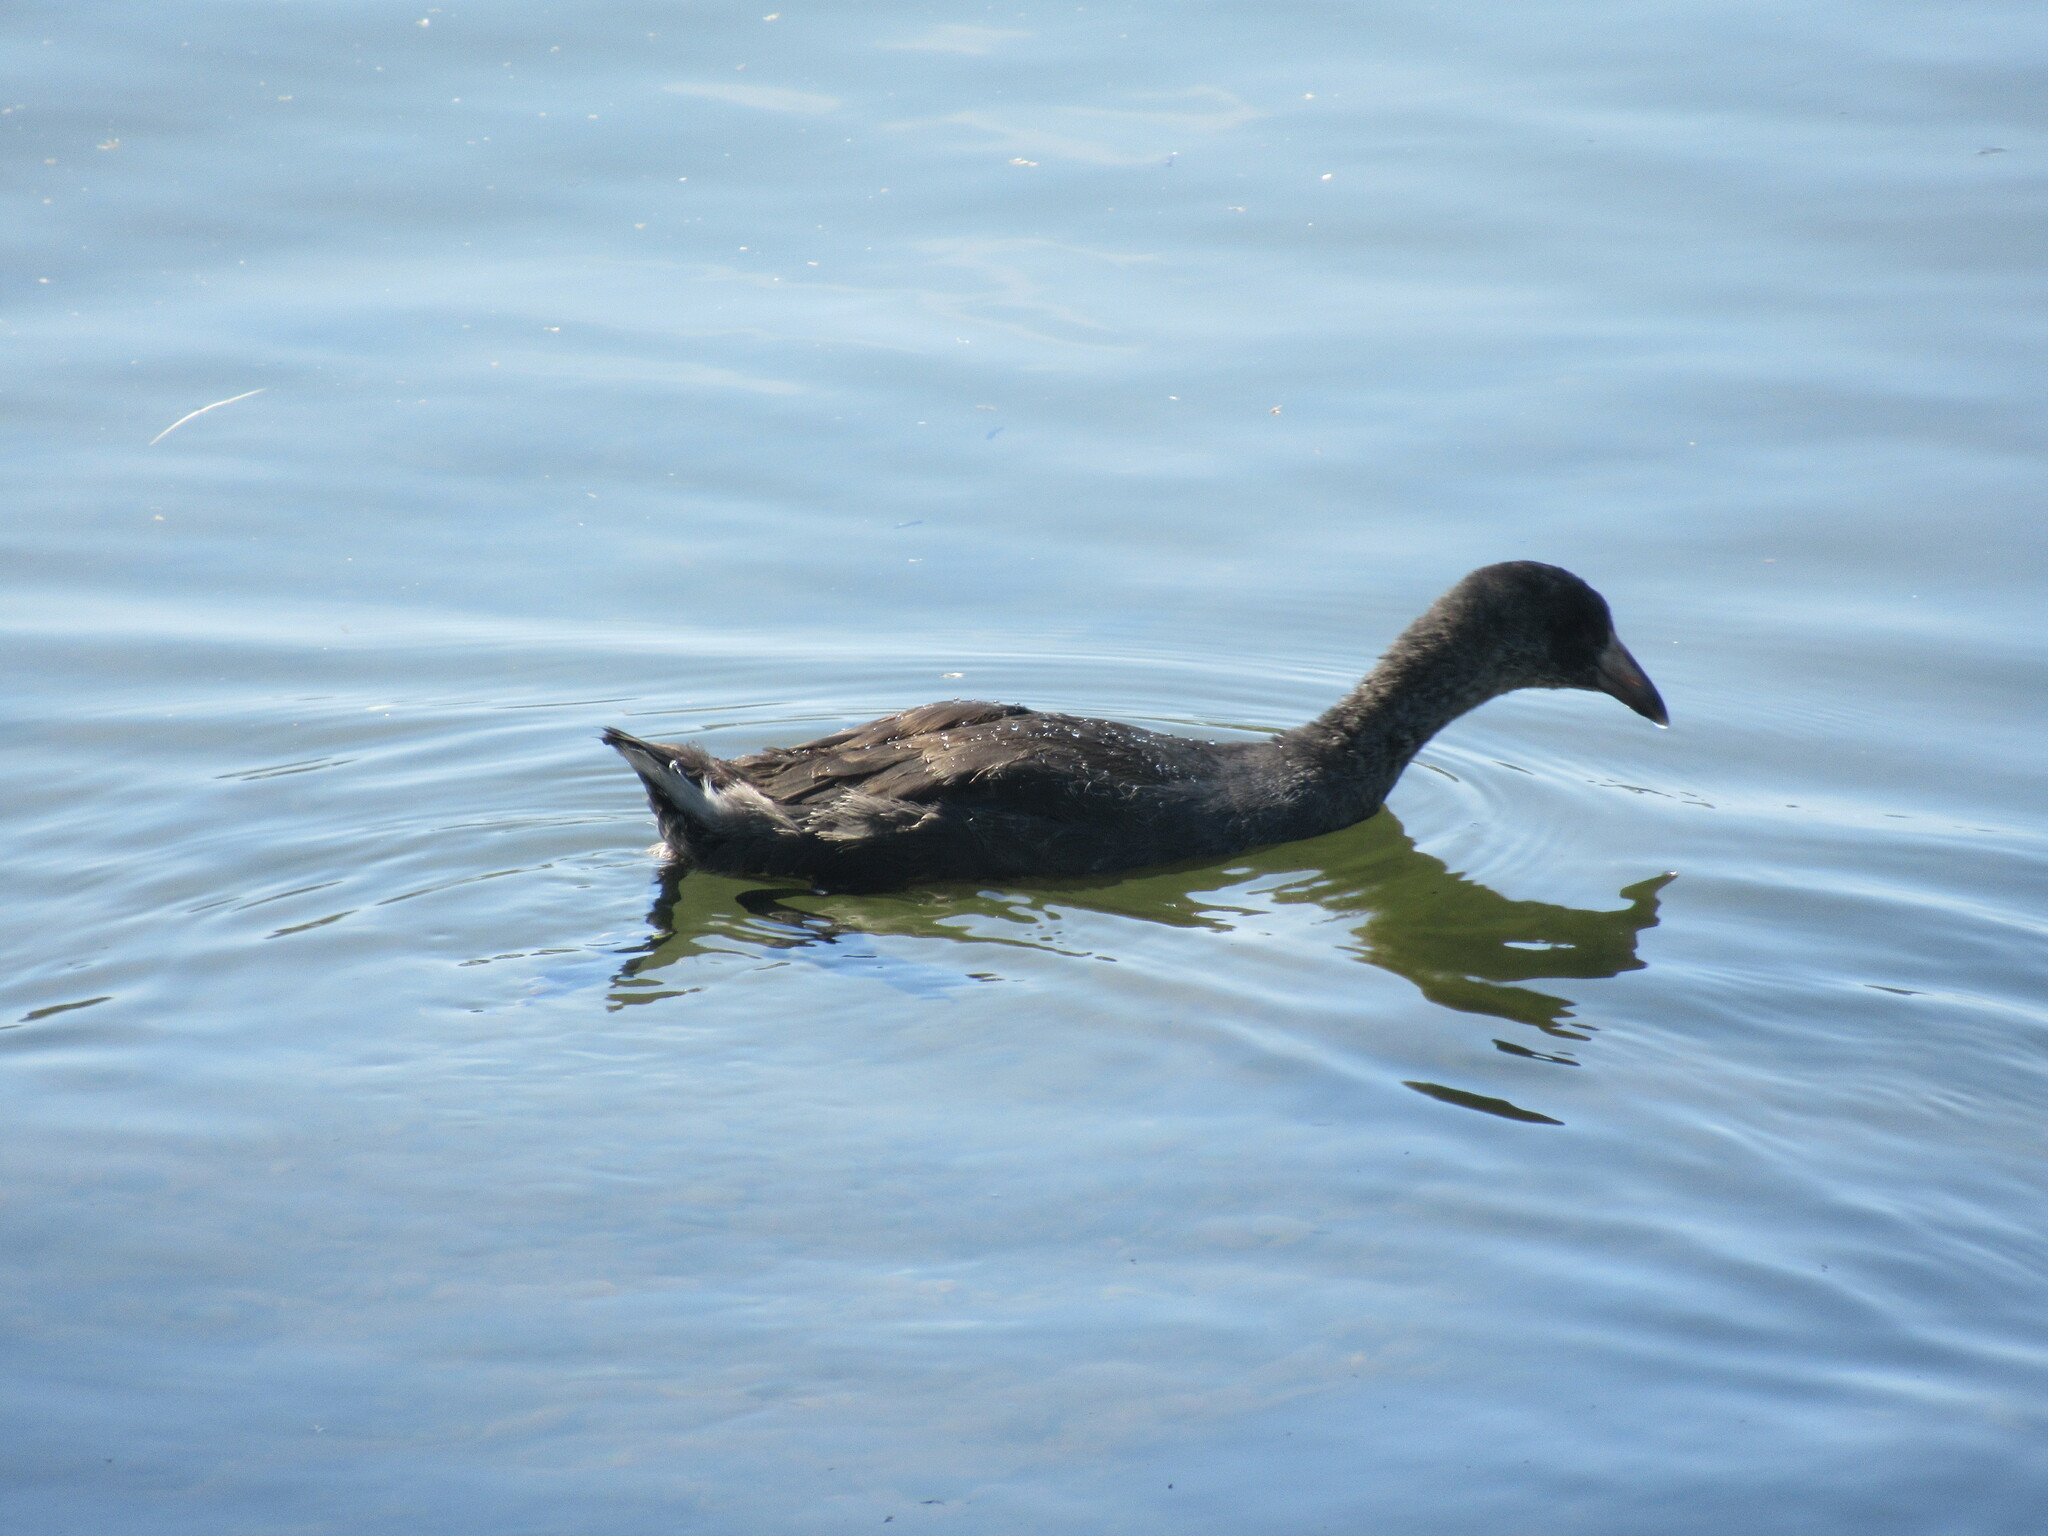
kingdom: Animalia
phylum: Chordata
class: Aves
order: Gruiformes
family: Rallidae
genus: Fulica
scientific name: Fulica americana
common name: American coot
